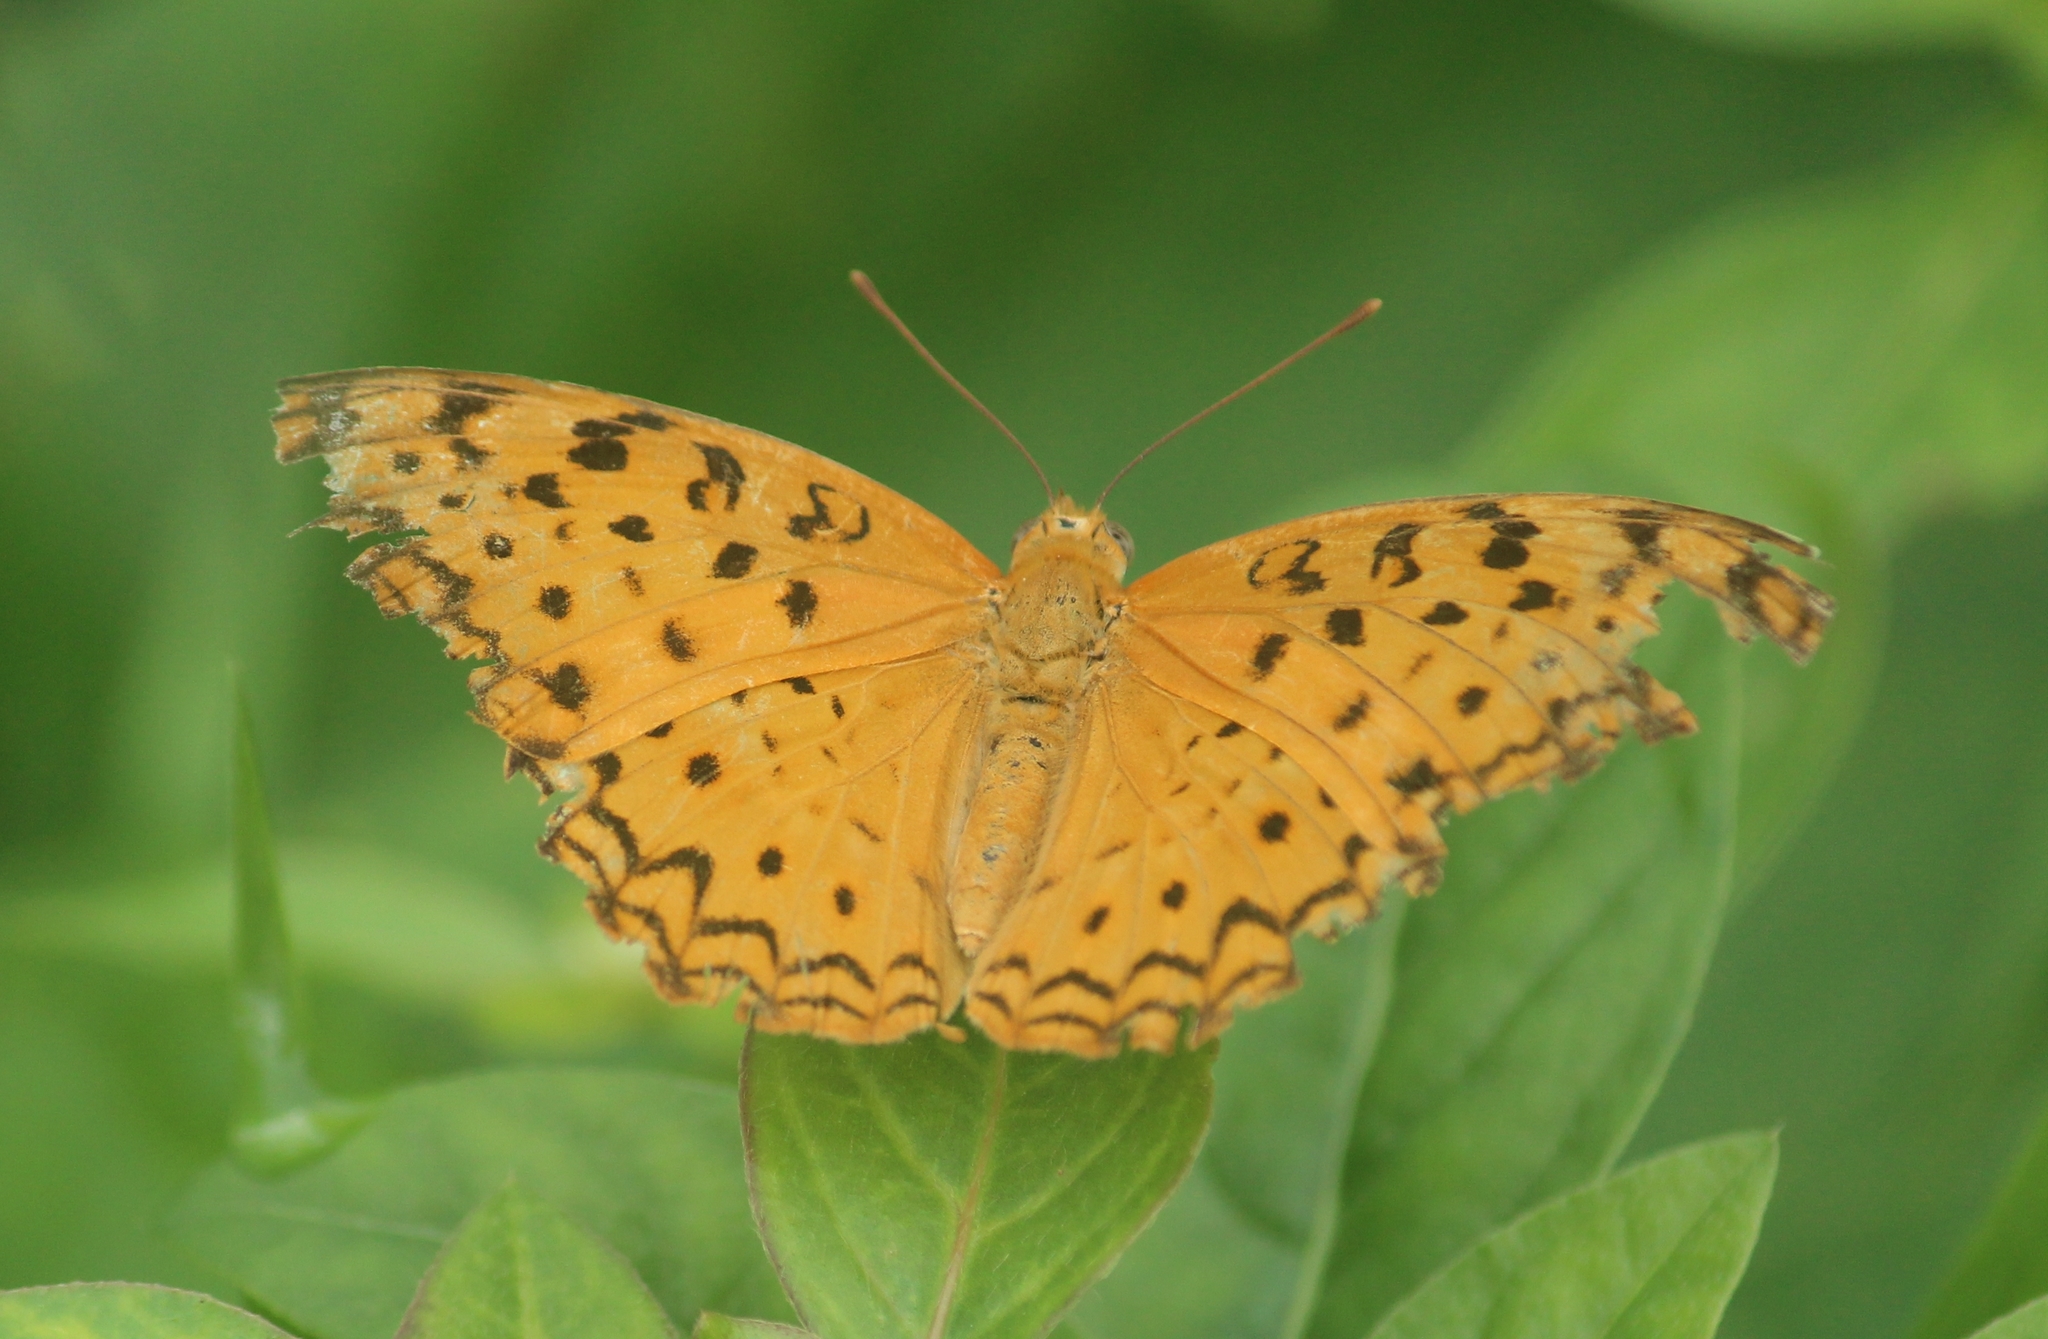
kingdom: Animalia
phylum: Arthropoda
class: Insecta
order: Lepidoptera
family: Nymphalidae
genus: Phalanta
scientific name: Phalanta phalantha
